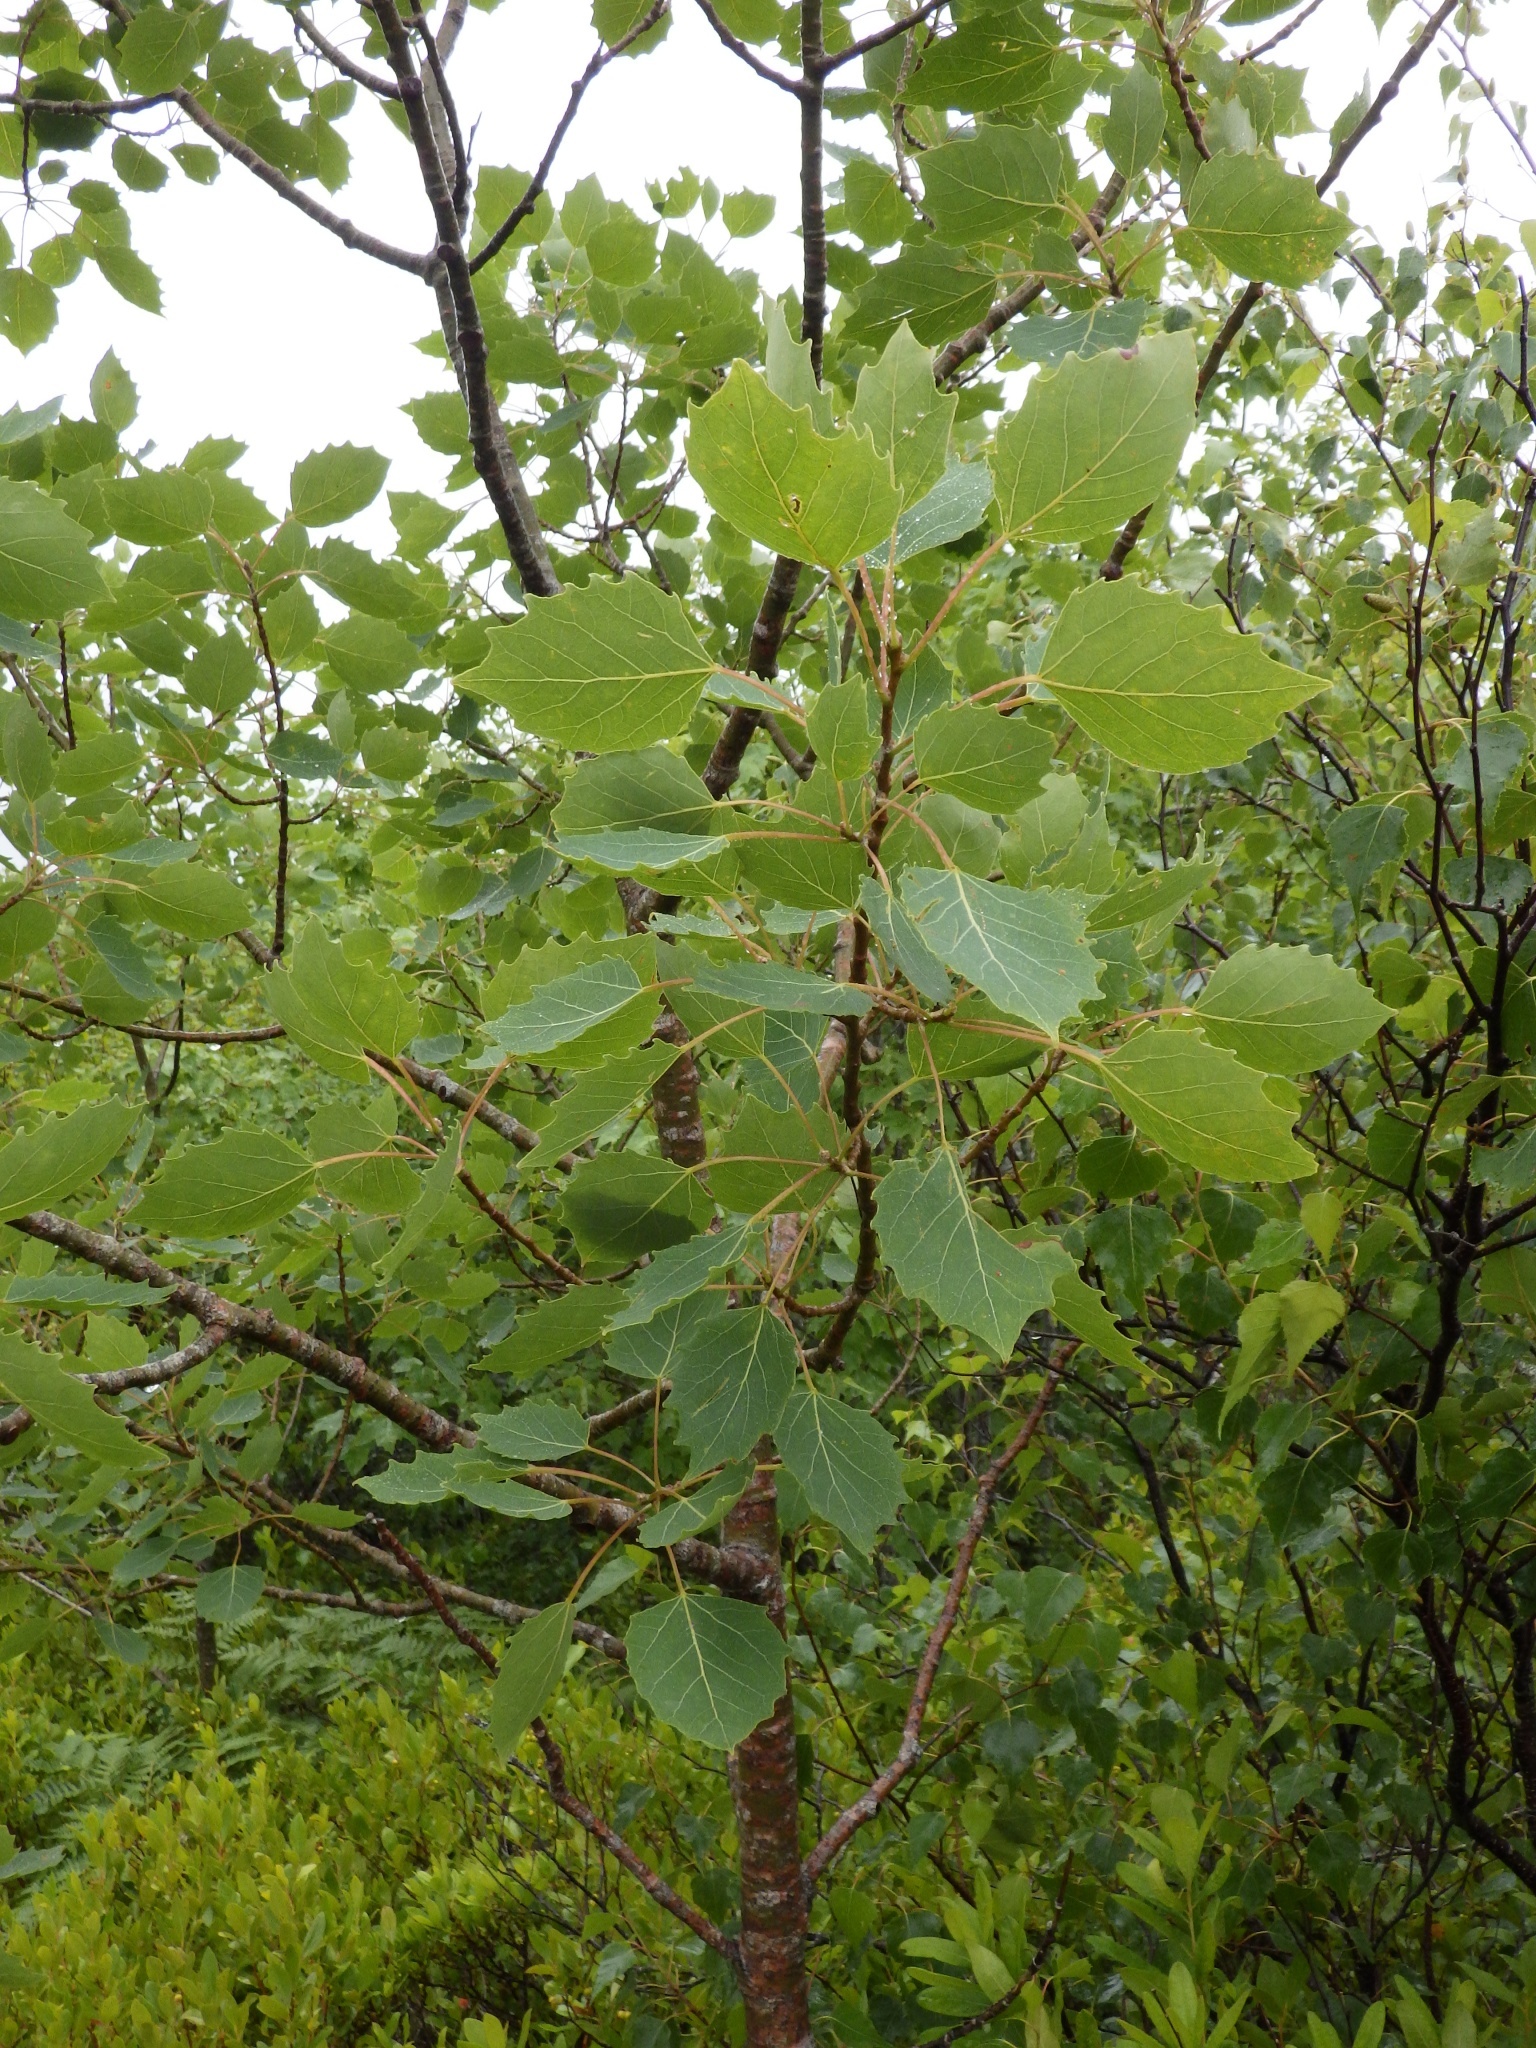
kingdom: Plantae
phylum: Tracheophyta
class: Magnoliopsida
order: Malpighiales
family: Salicaceae
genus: Populus
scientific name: Populus grandidentata
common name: Bigtooth aspen
